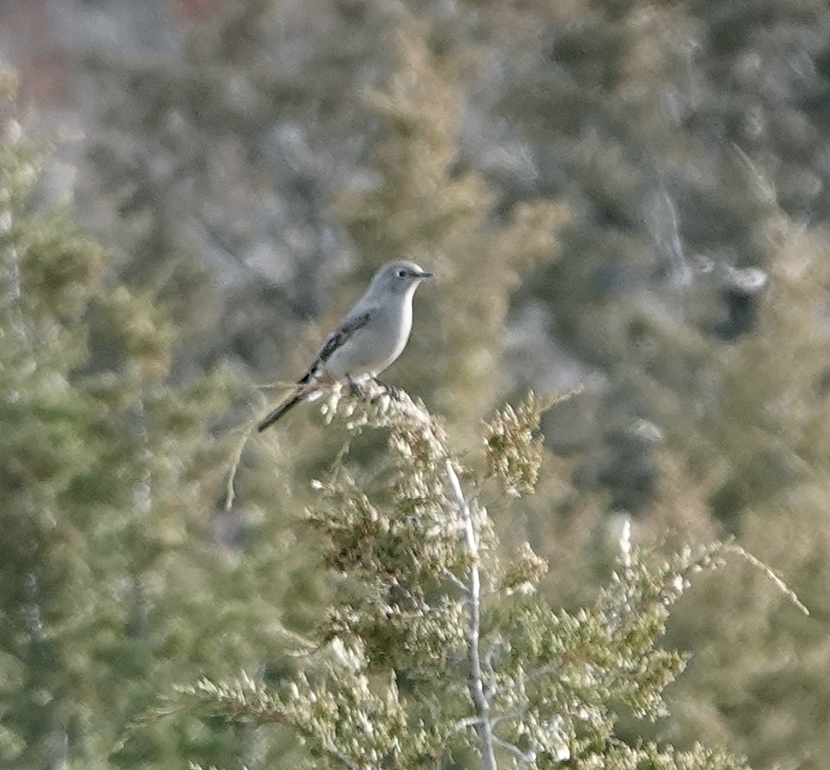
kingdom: Animalia
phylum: Chordata
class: Aves
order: Passeriformes
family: Turdidae
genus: Myadestes
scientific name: Myadestes townsendi
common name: Townsend's solitaire
